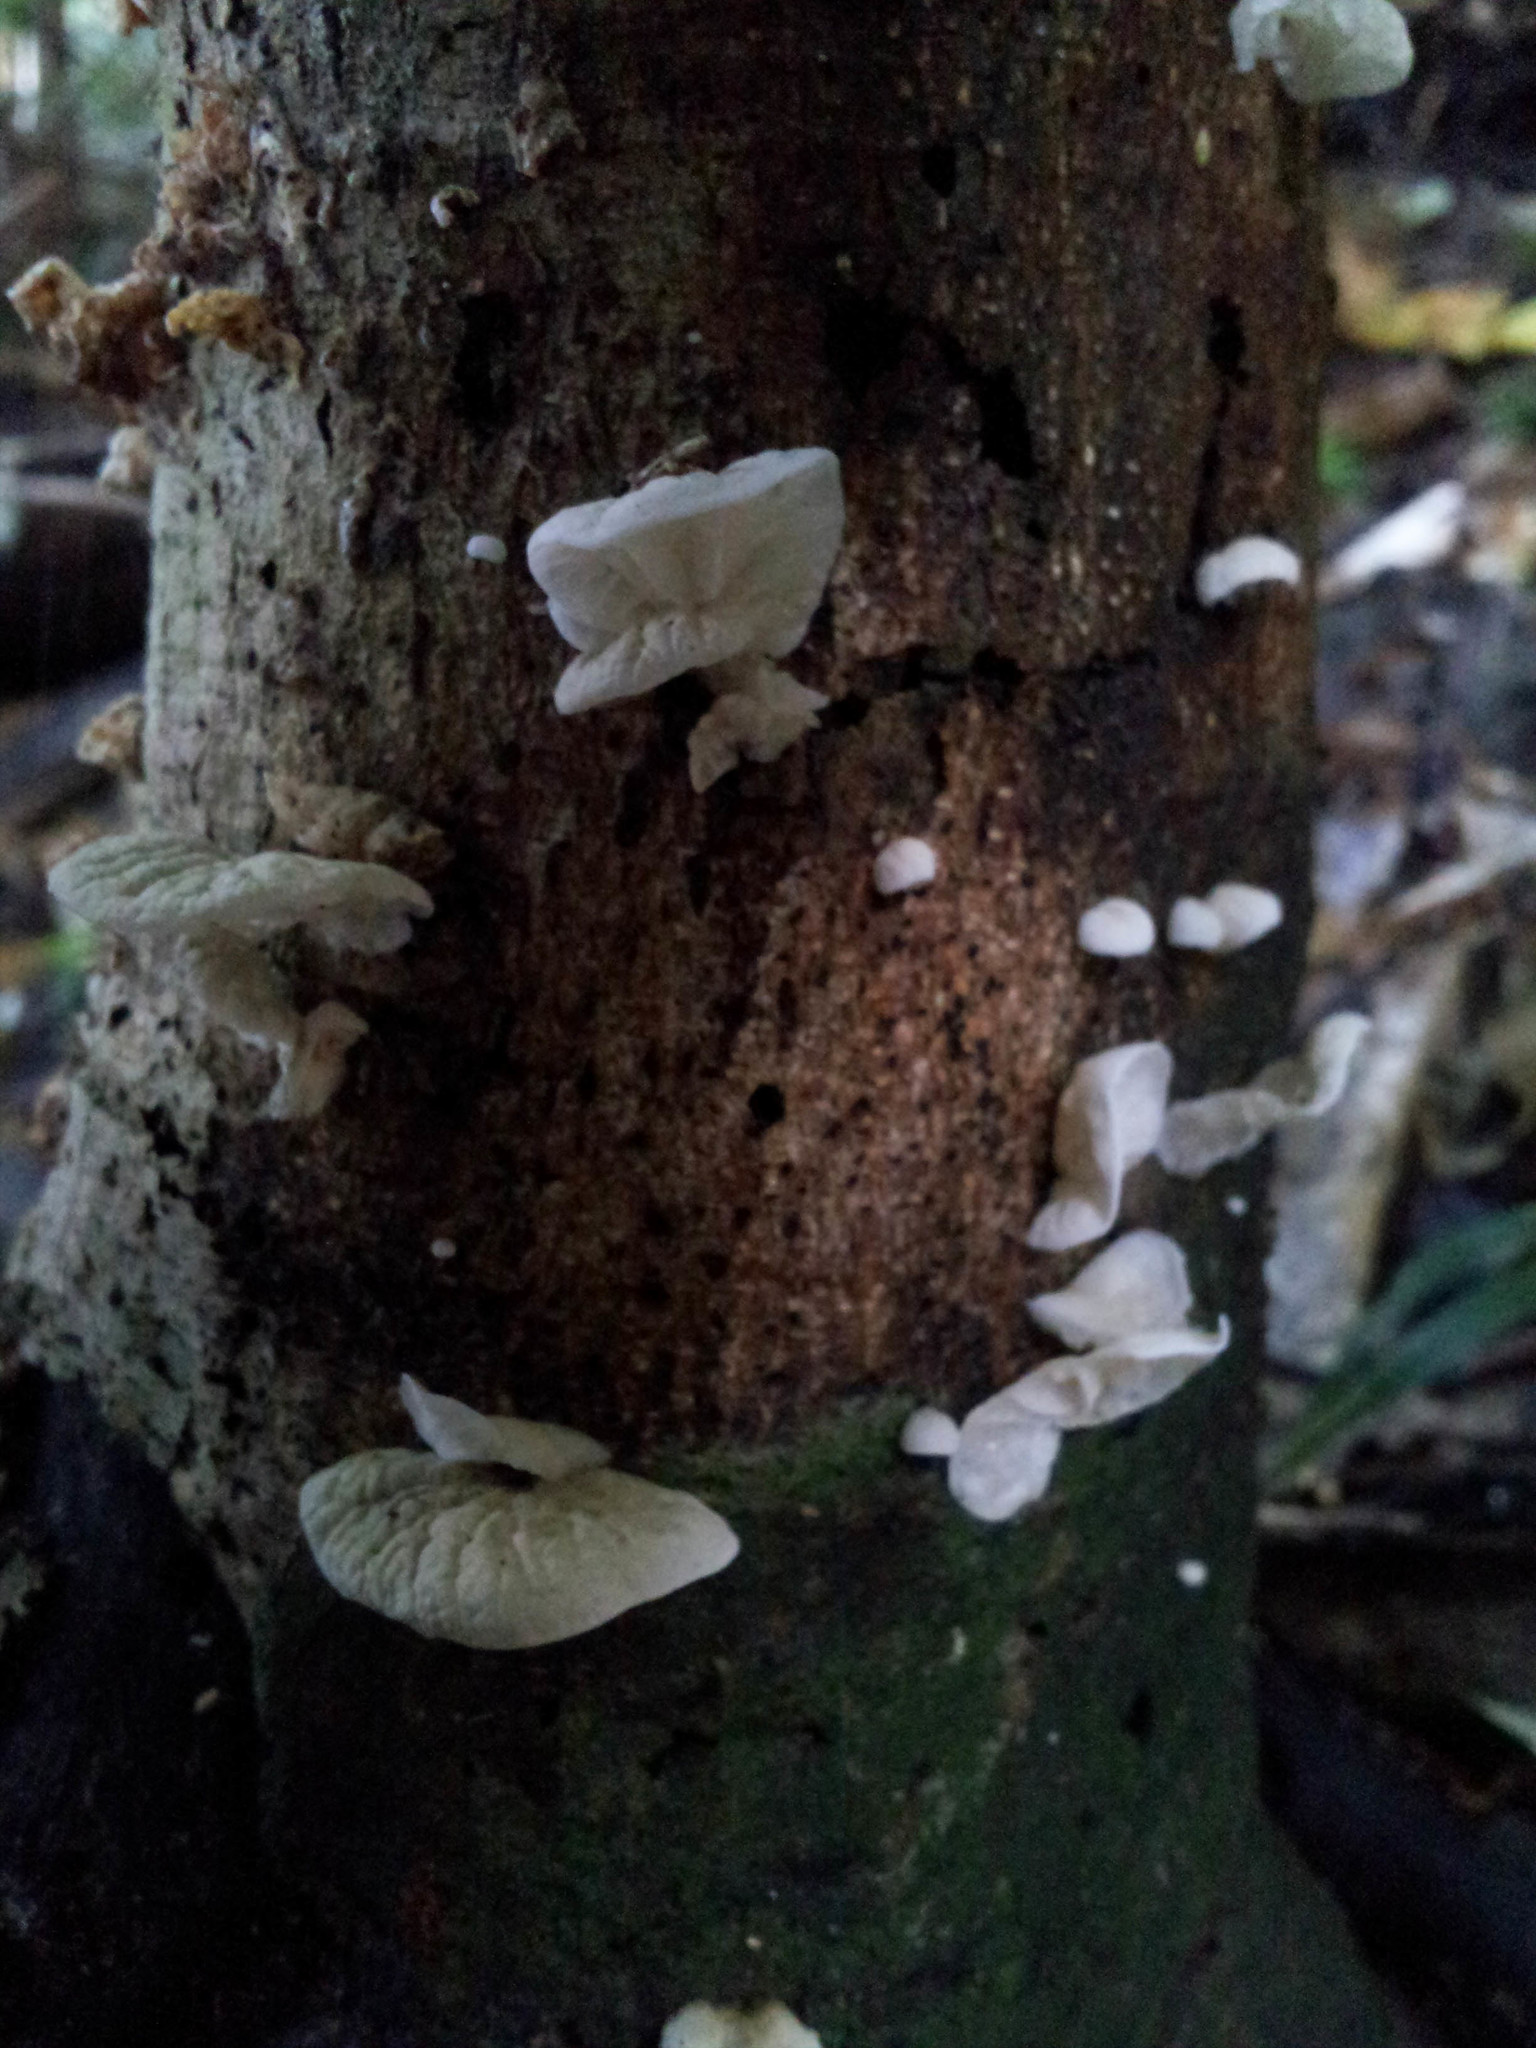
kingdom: Fungi
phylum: Basidiomycota
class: Agaricomycetes
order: Agaricales
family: Marasmiaceae
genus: Campanella
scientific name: Campanella tristis
